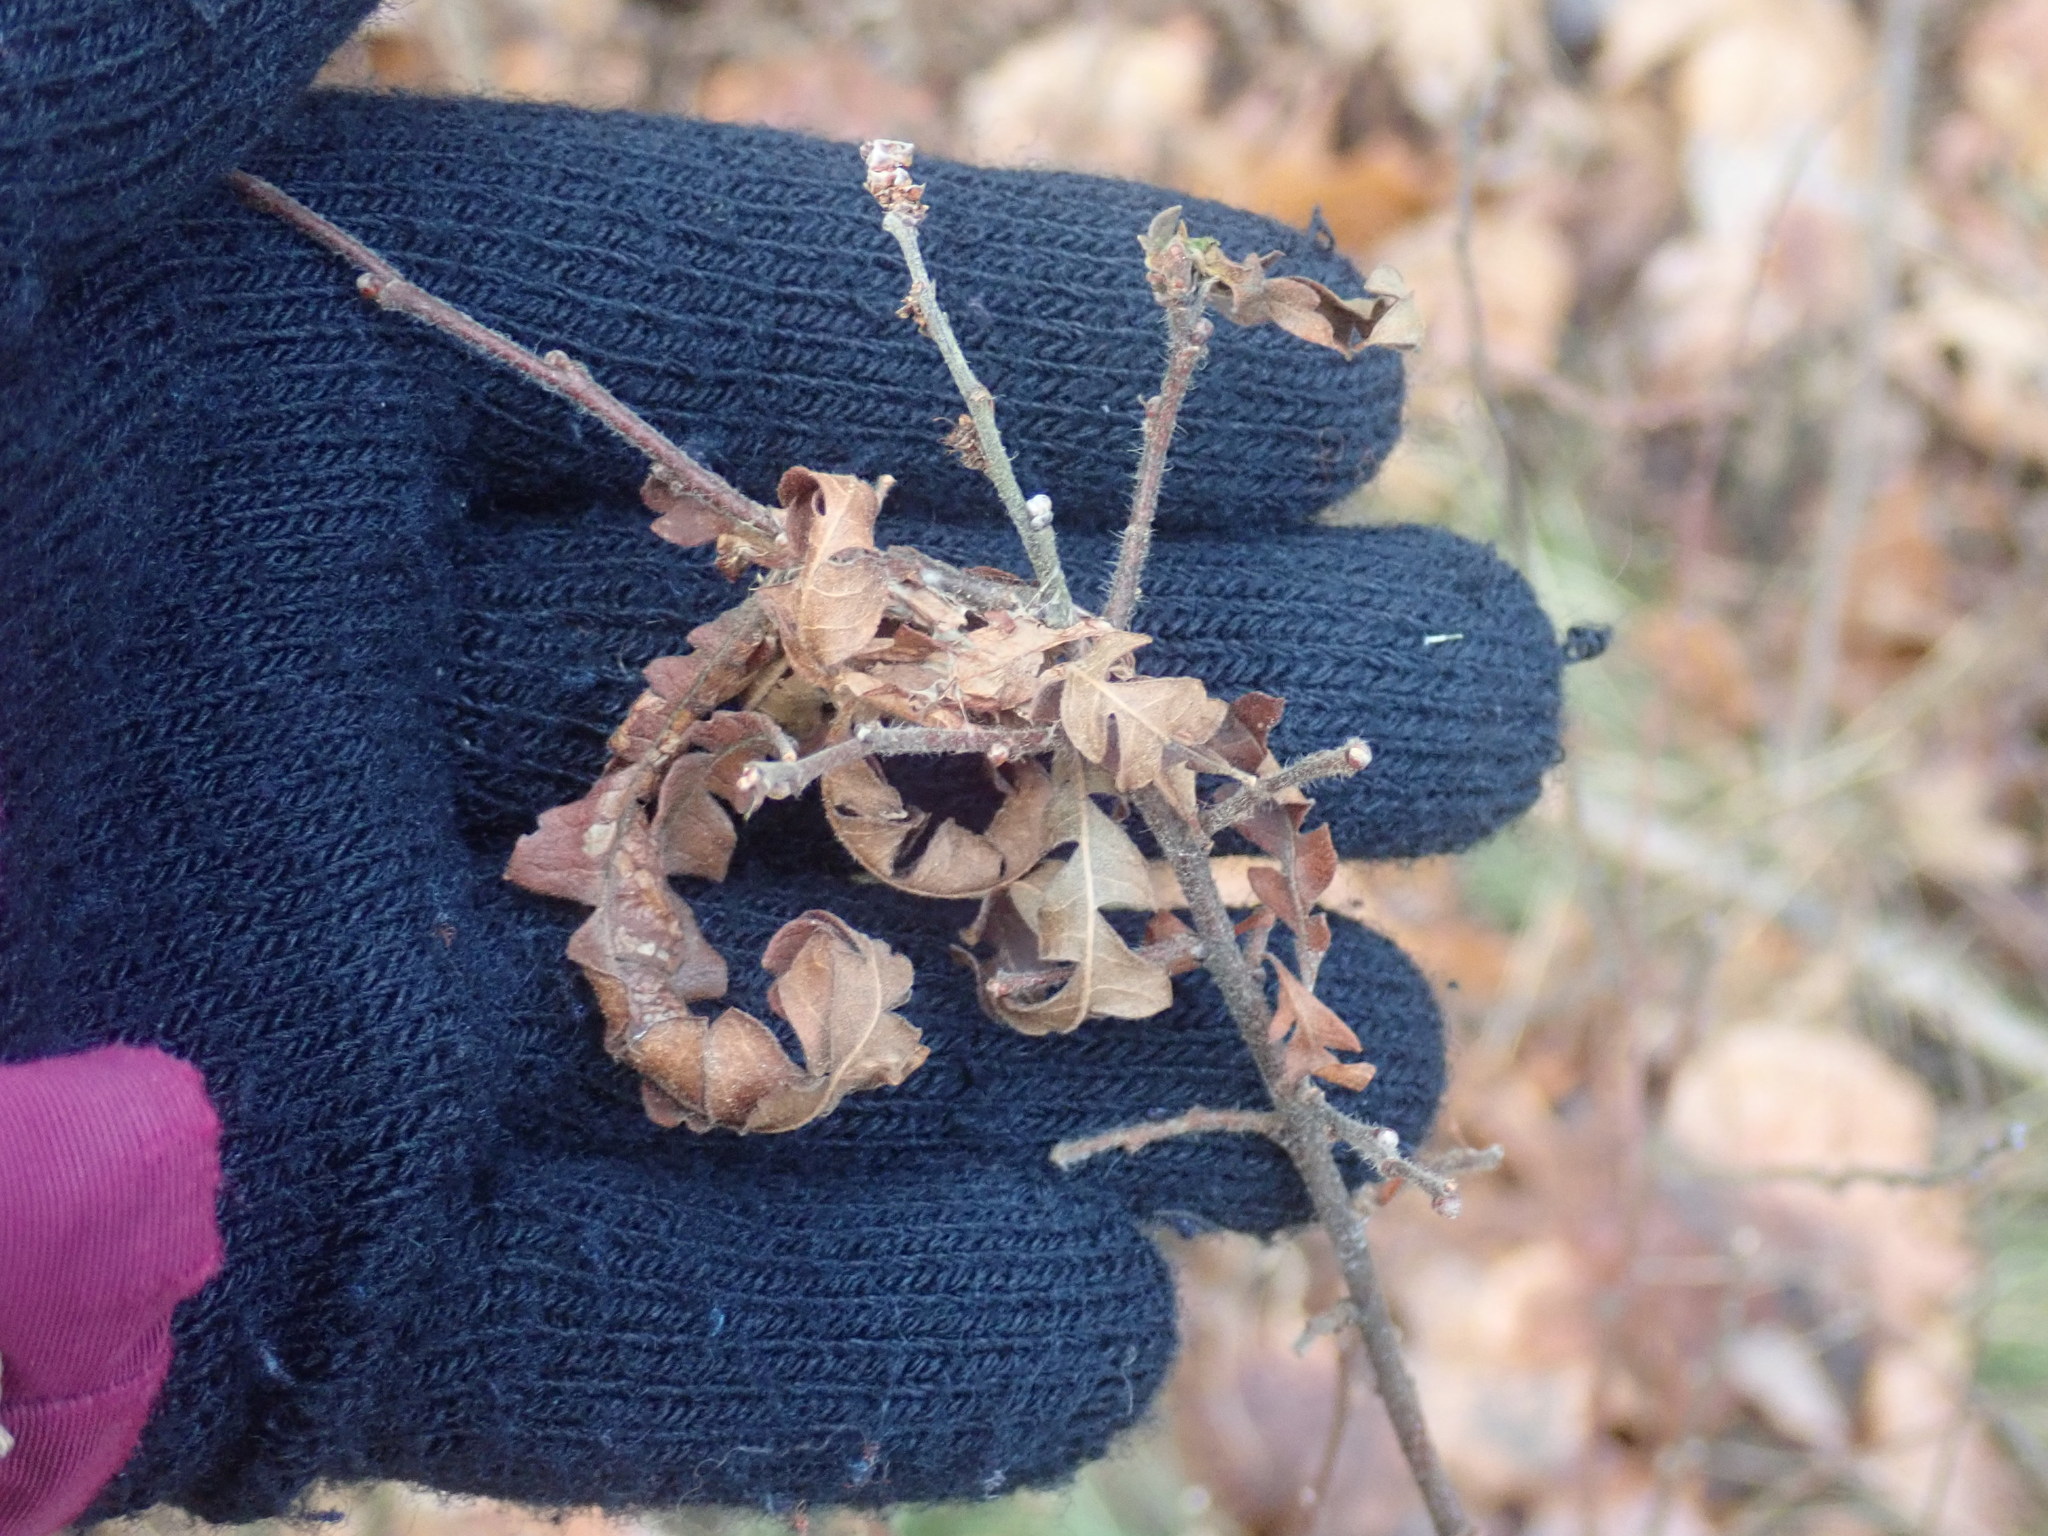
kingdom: Plantae
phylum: Tracheophyta
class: Magnoliopsida
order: Fagales
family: Myricaceae
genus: Comptonia
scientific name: Comptonia peregrina
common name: Sweet-fern
